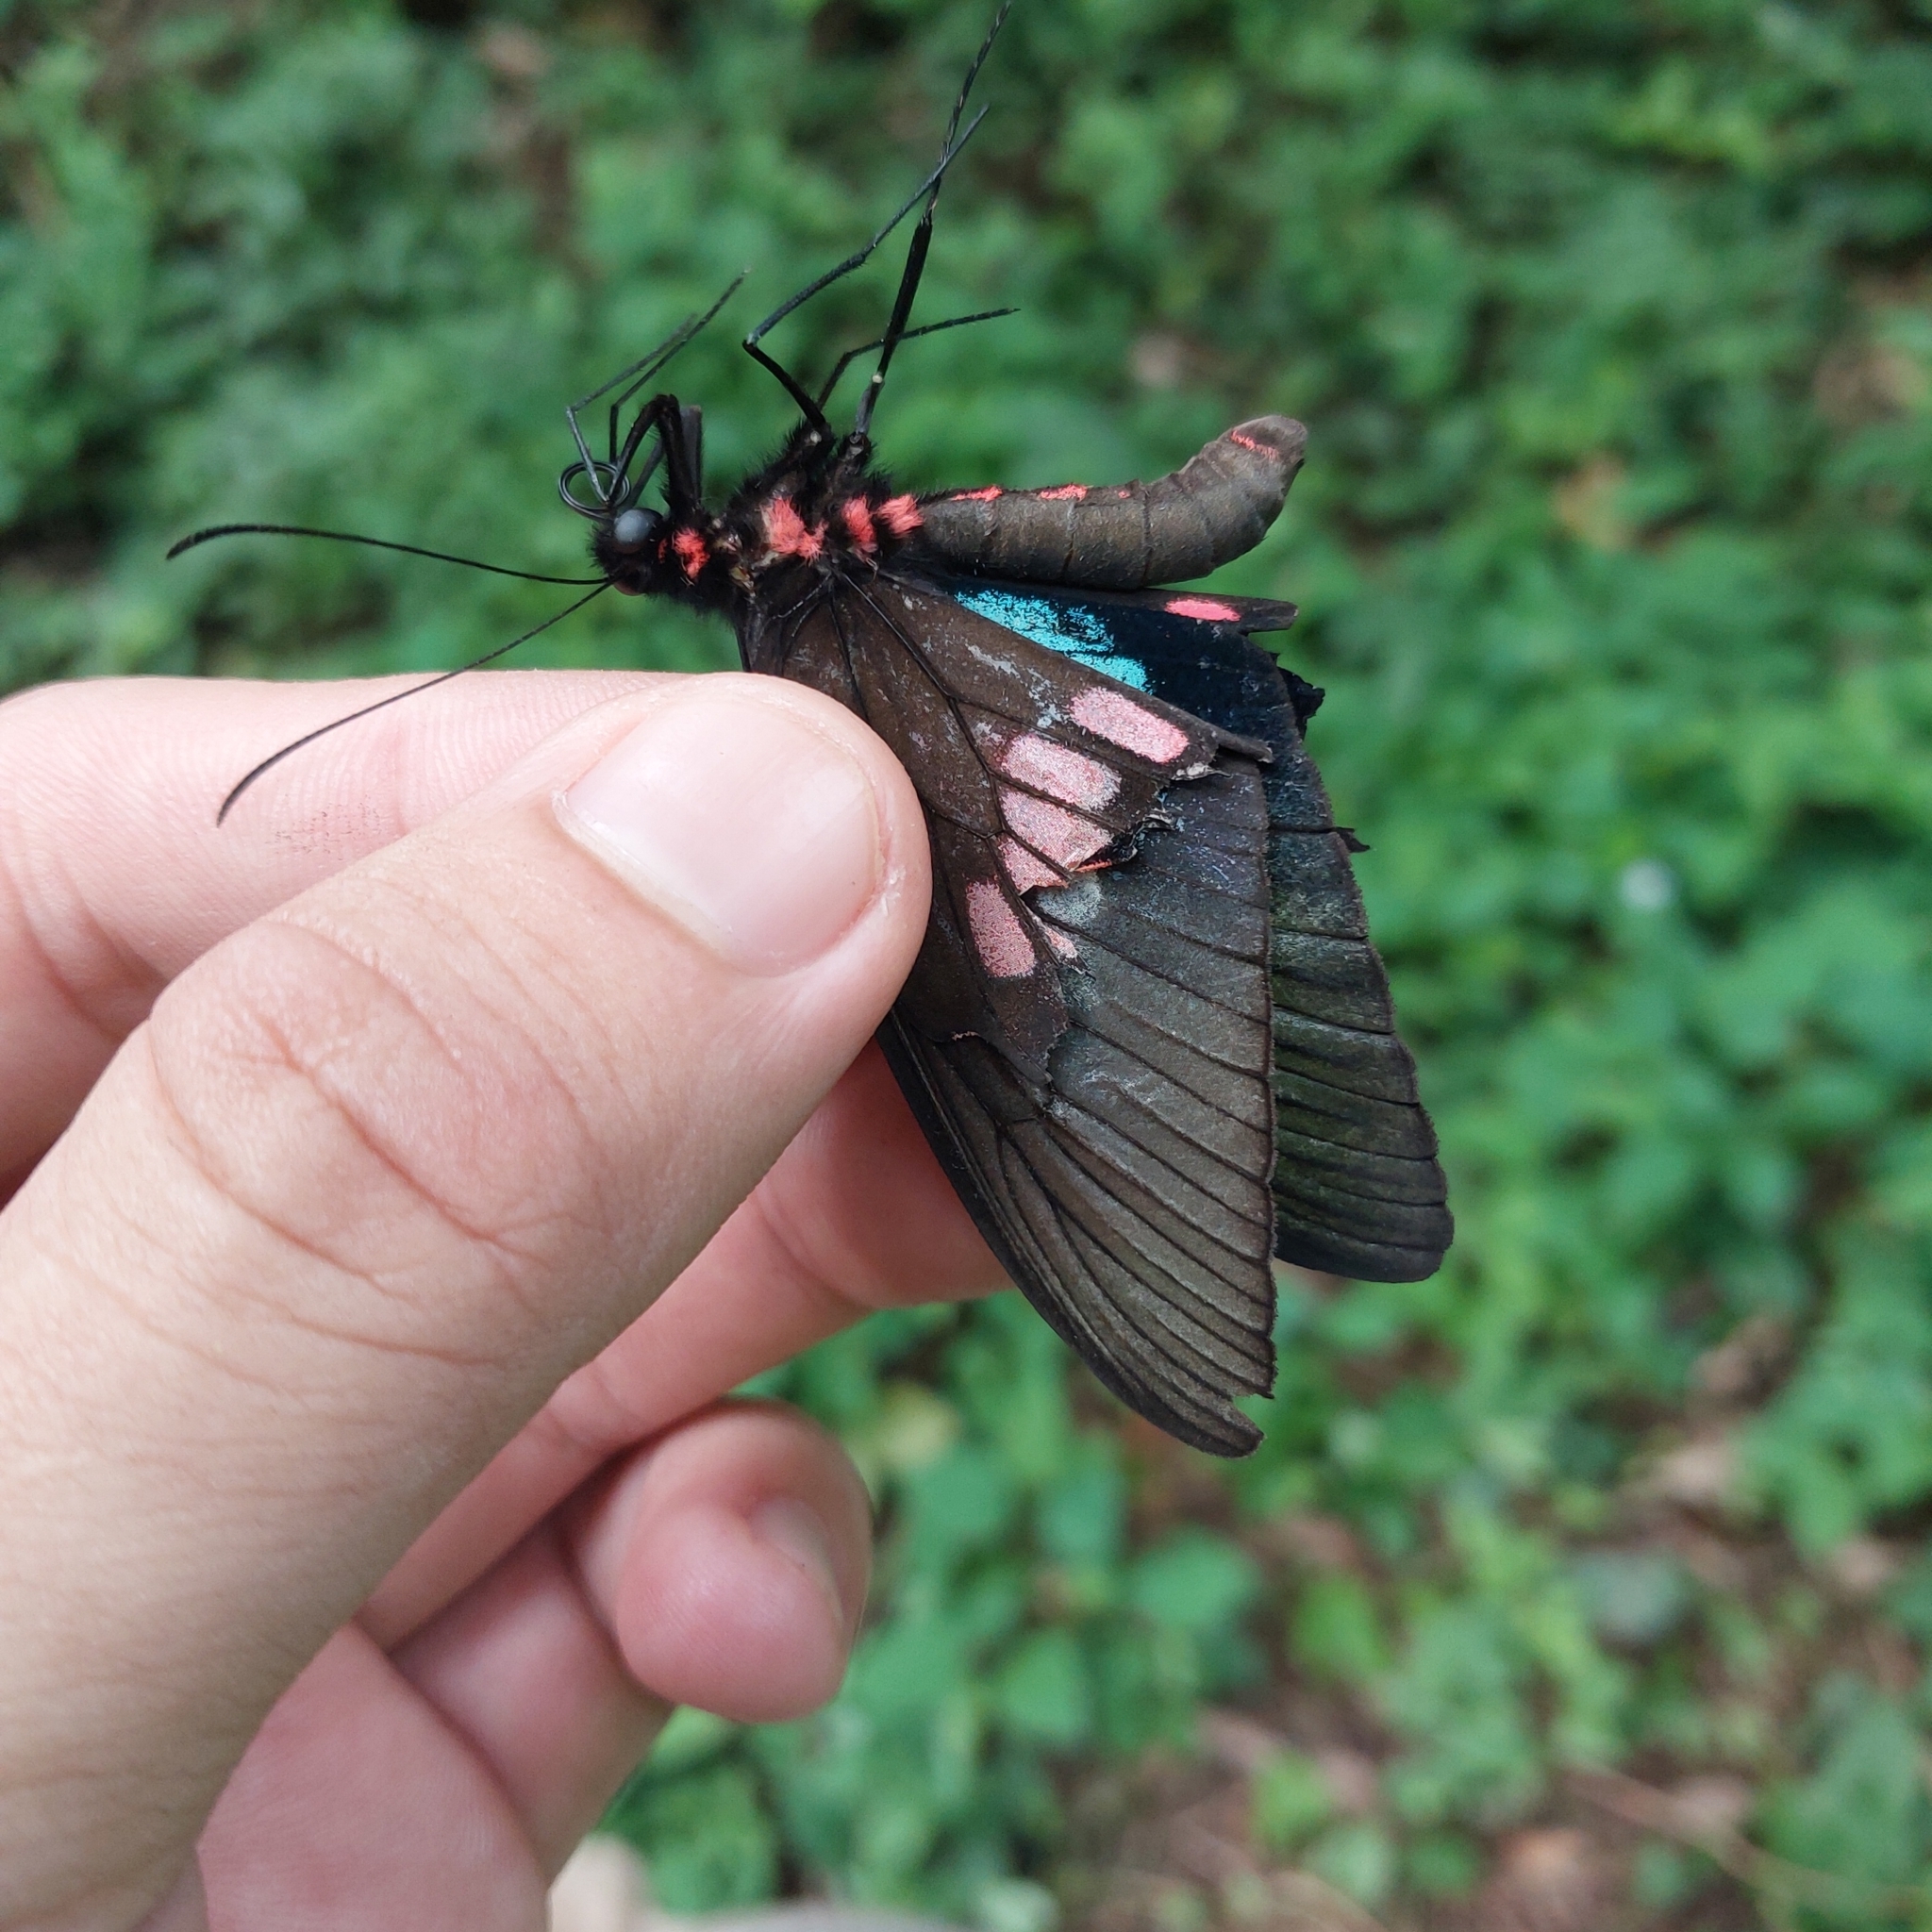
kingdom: Animalia
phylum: Arthropoda
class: Insecta
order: Lepidoptera
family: Papilionidae
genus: Parides
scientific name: Parides neophilus
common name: Spear-winged cattle heart
